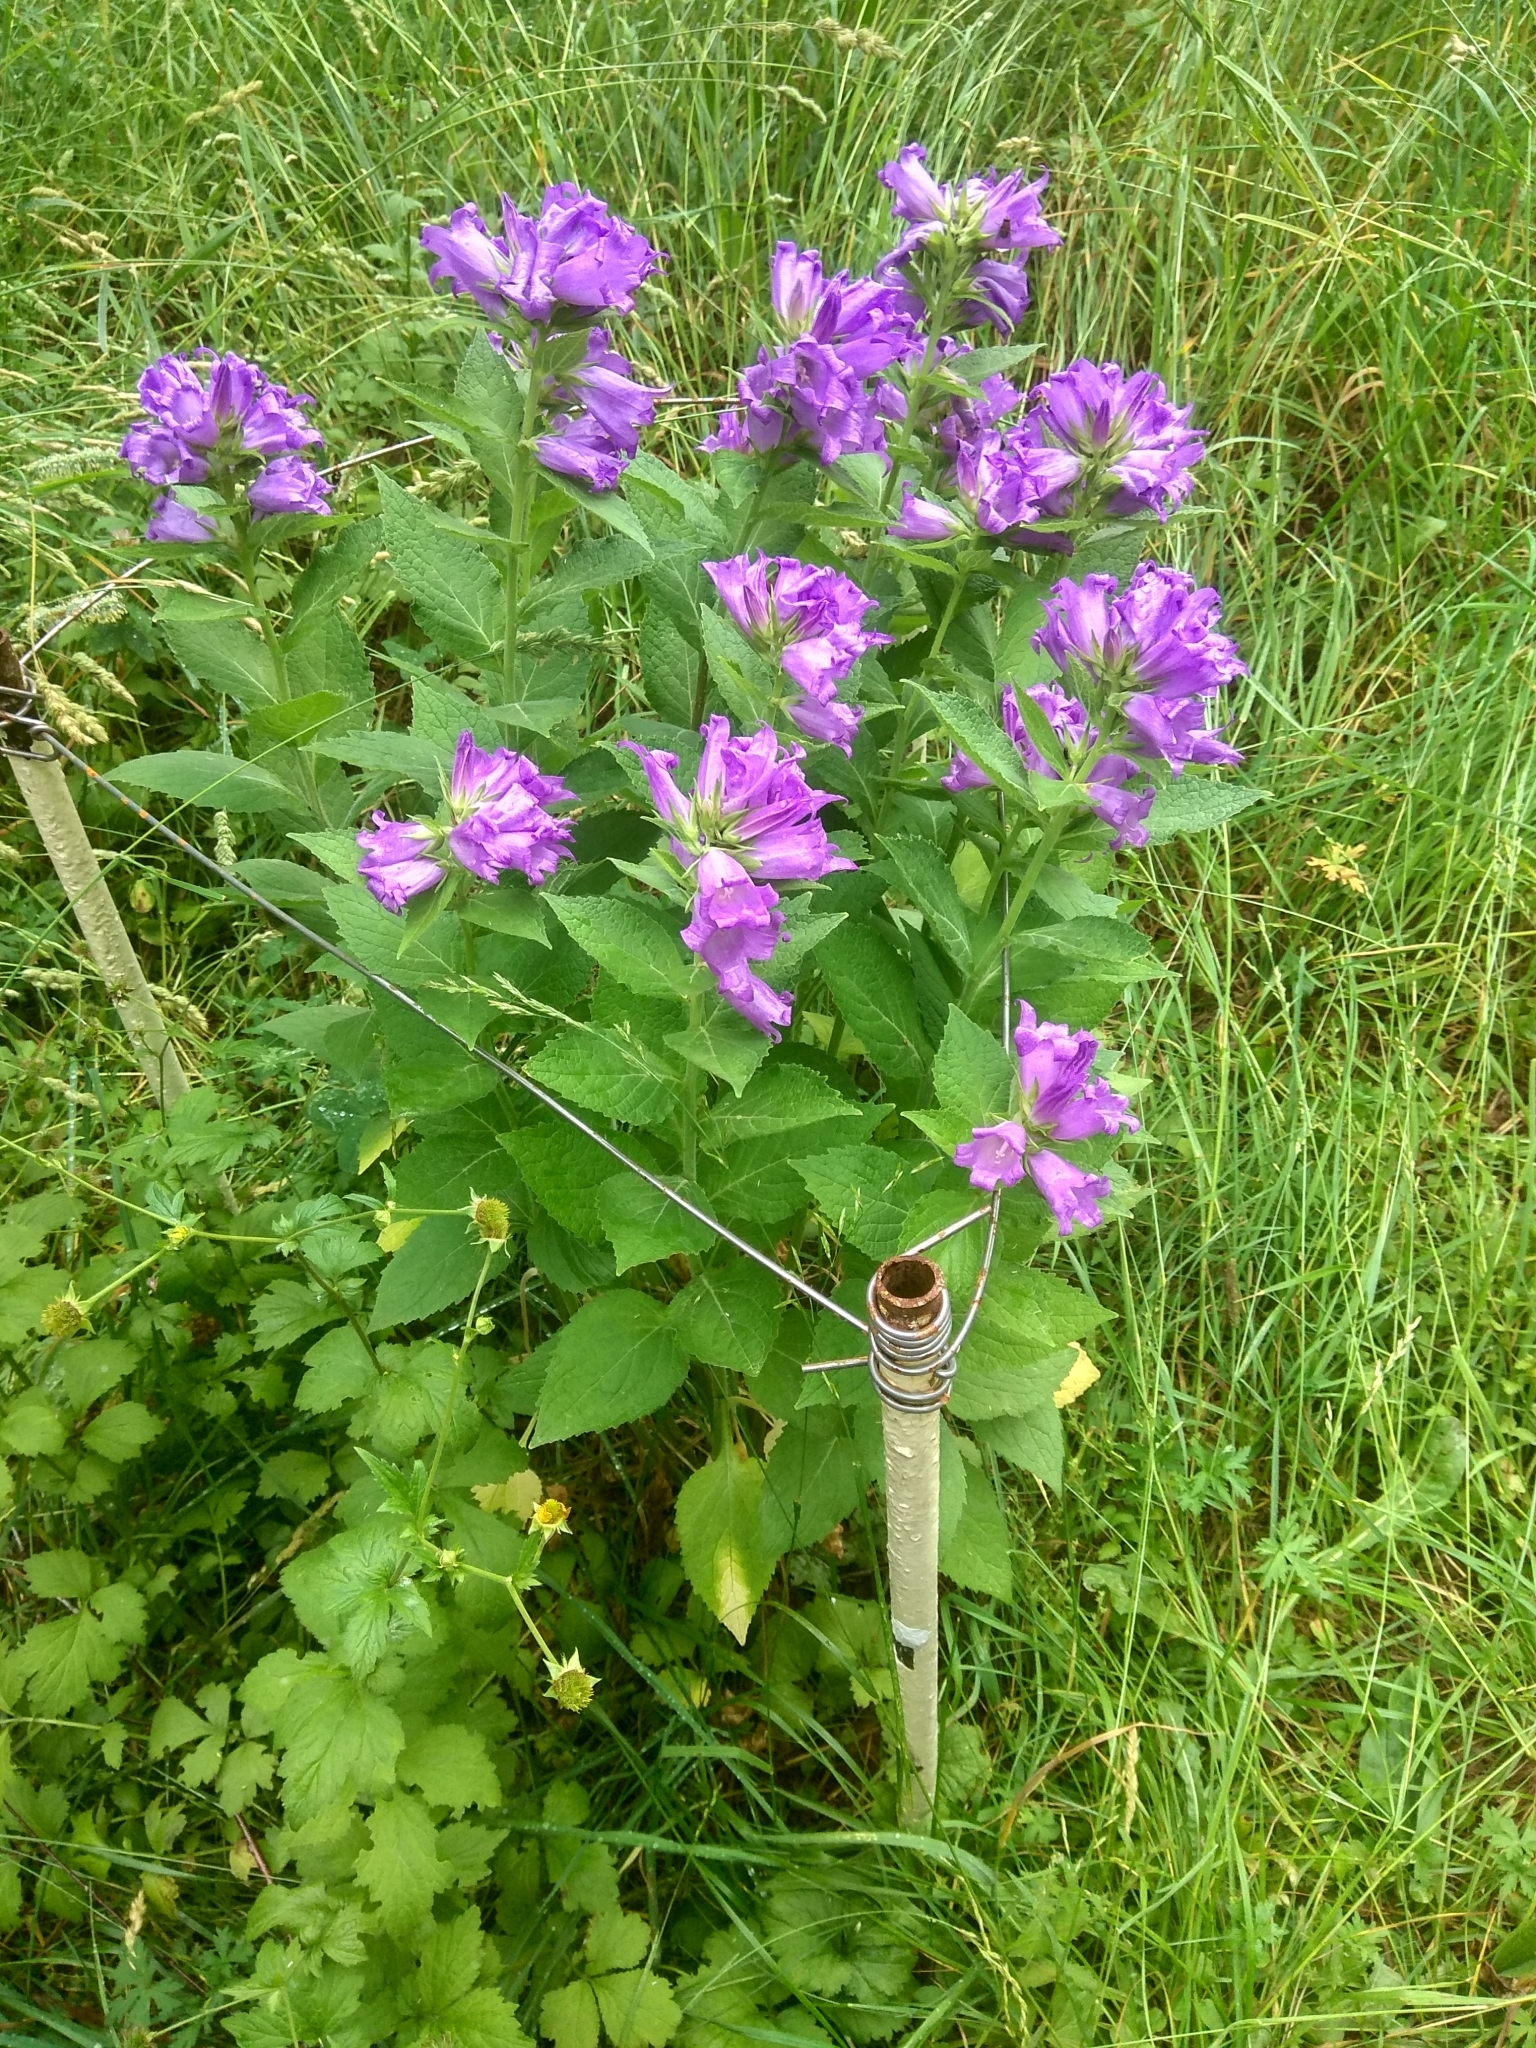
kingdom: Plantae
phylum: Tracheophyta
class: Magnoliopsida
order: Asterales
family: Campanulaceae
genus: Campanula
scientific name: Campanula latifolia
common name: Giant bellflower
